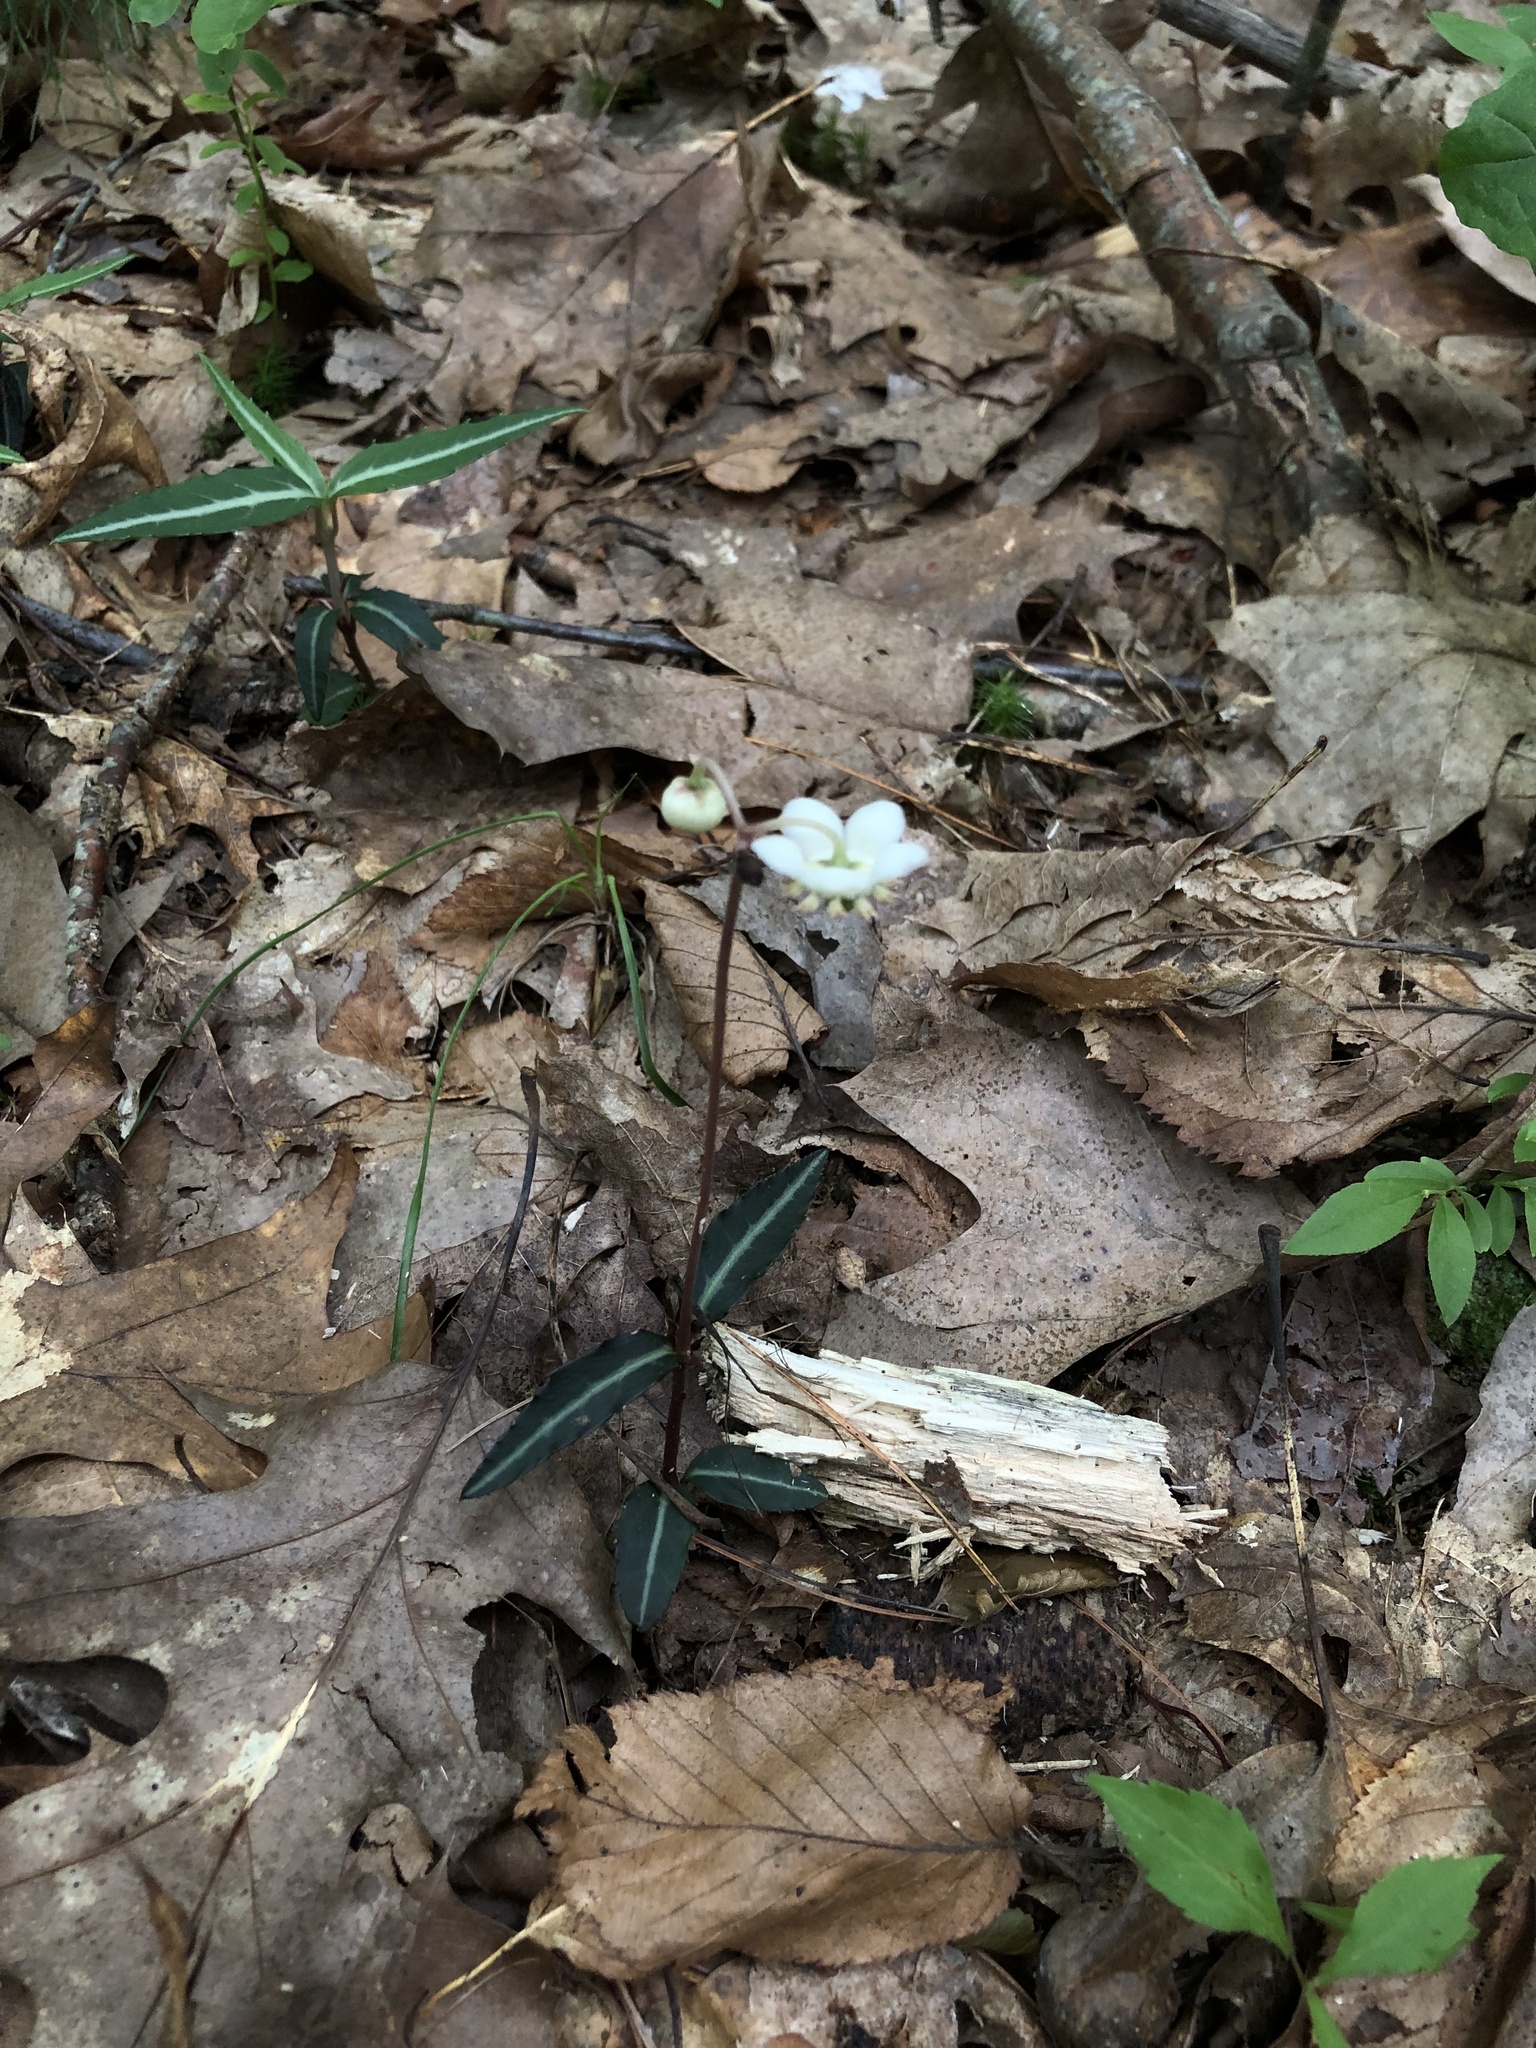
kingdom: Plantae
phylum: Tracheophyta
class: Magnoliopsida
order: Ericales
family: Ericaceae
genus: Chimaphila
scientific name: Chimaphila maculata
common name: Spotted pipsissewa
